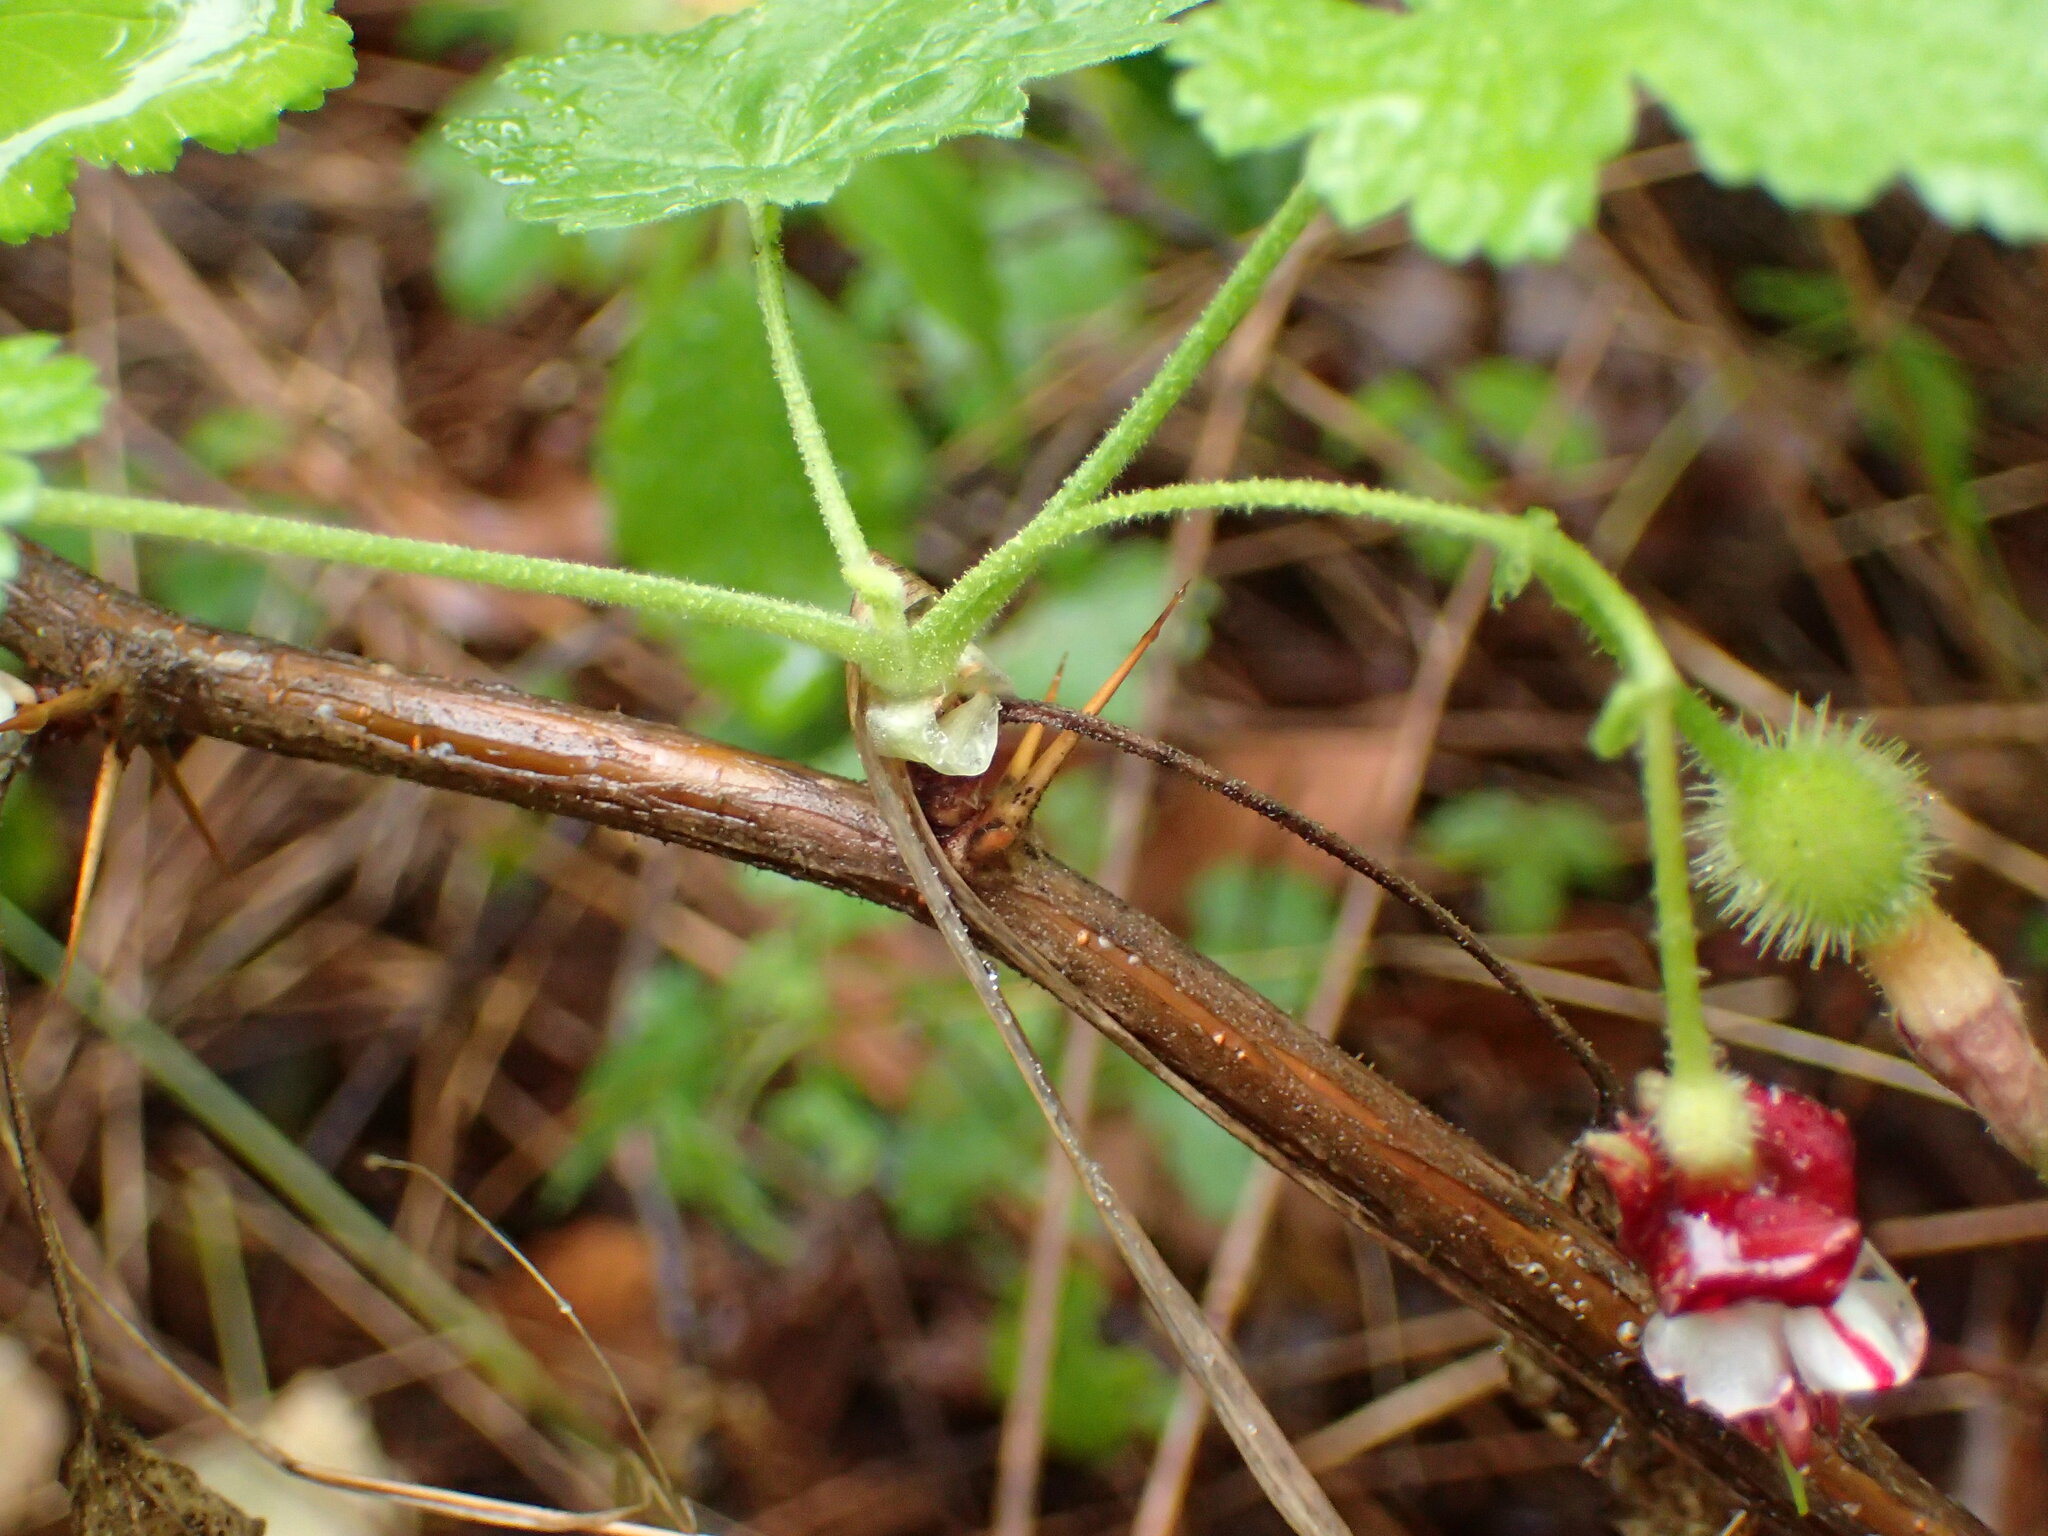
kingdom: Plantae
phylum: Tracheophyta
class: Magnoliopsida
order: Saxifragales
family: Grossulariaceae
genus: Ribes
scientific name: Ribes amarum
